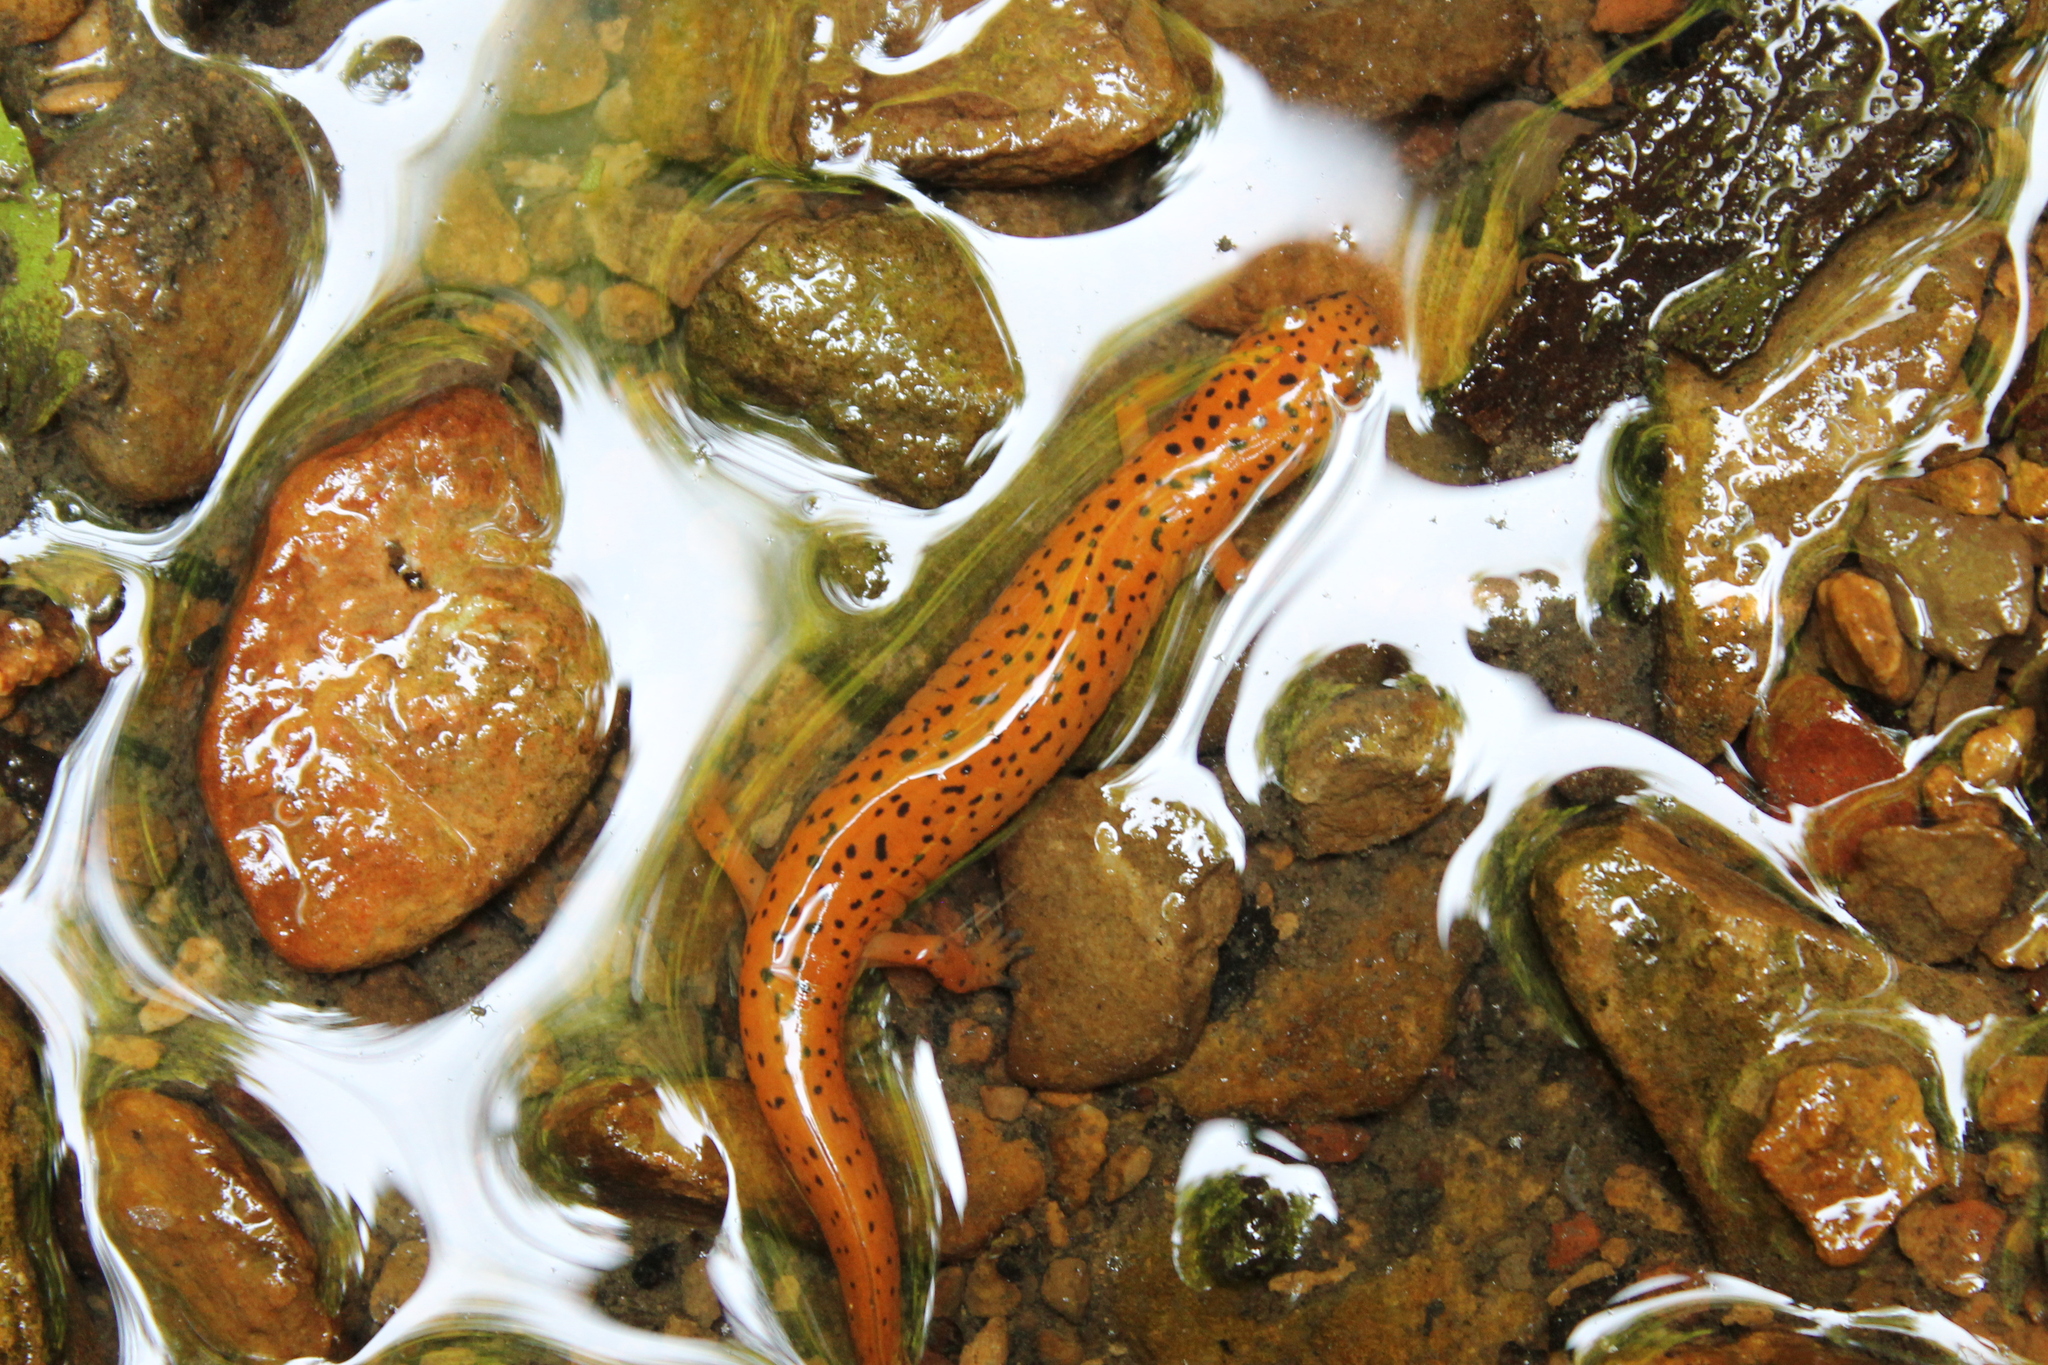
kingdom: Animalia
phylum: Chordata
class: Amphibia
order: Caudata
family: Plethodontidae
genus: Pseudotriton
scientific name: Pseudotriton ruber
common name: Red salamander
